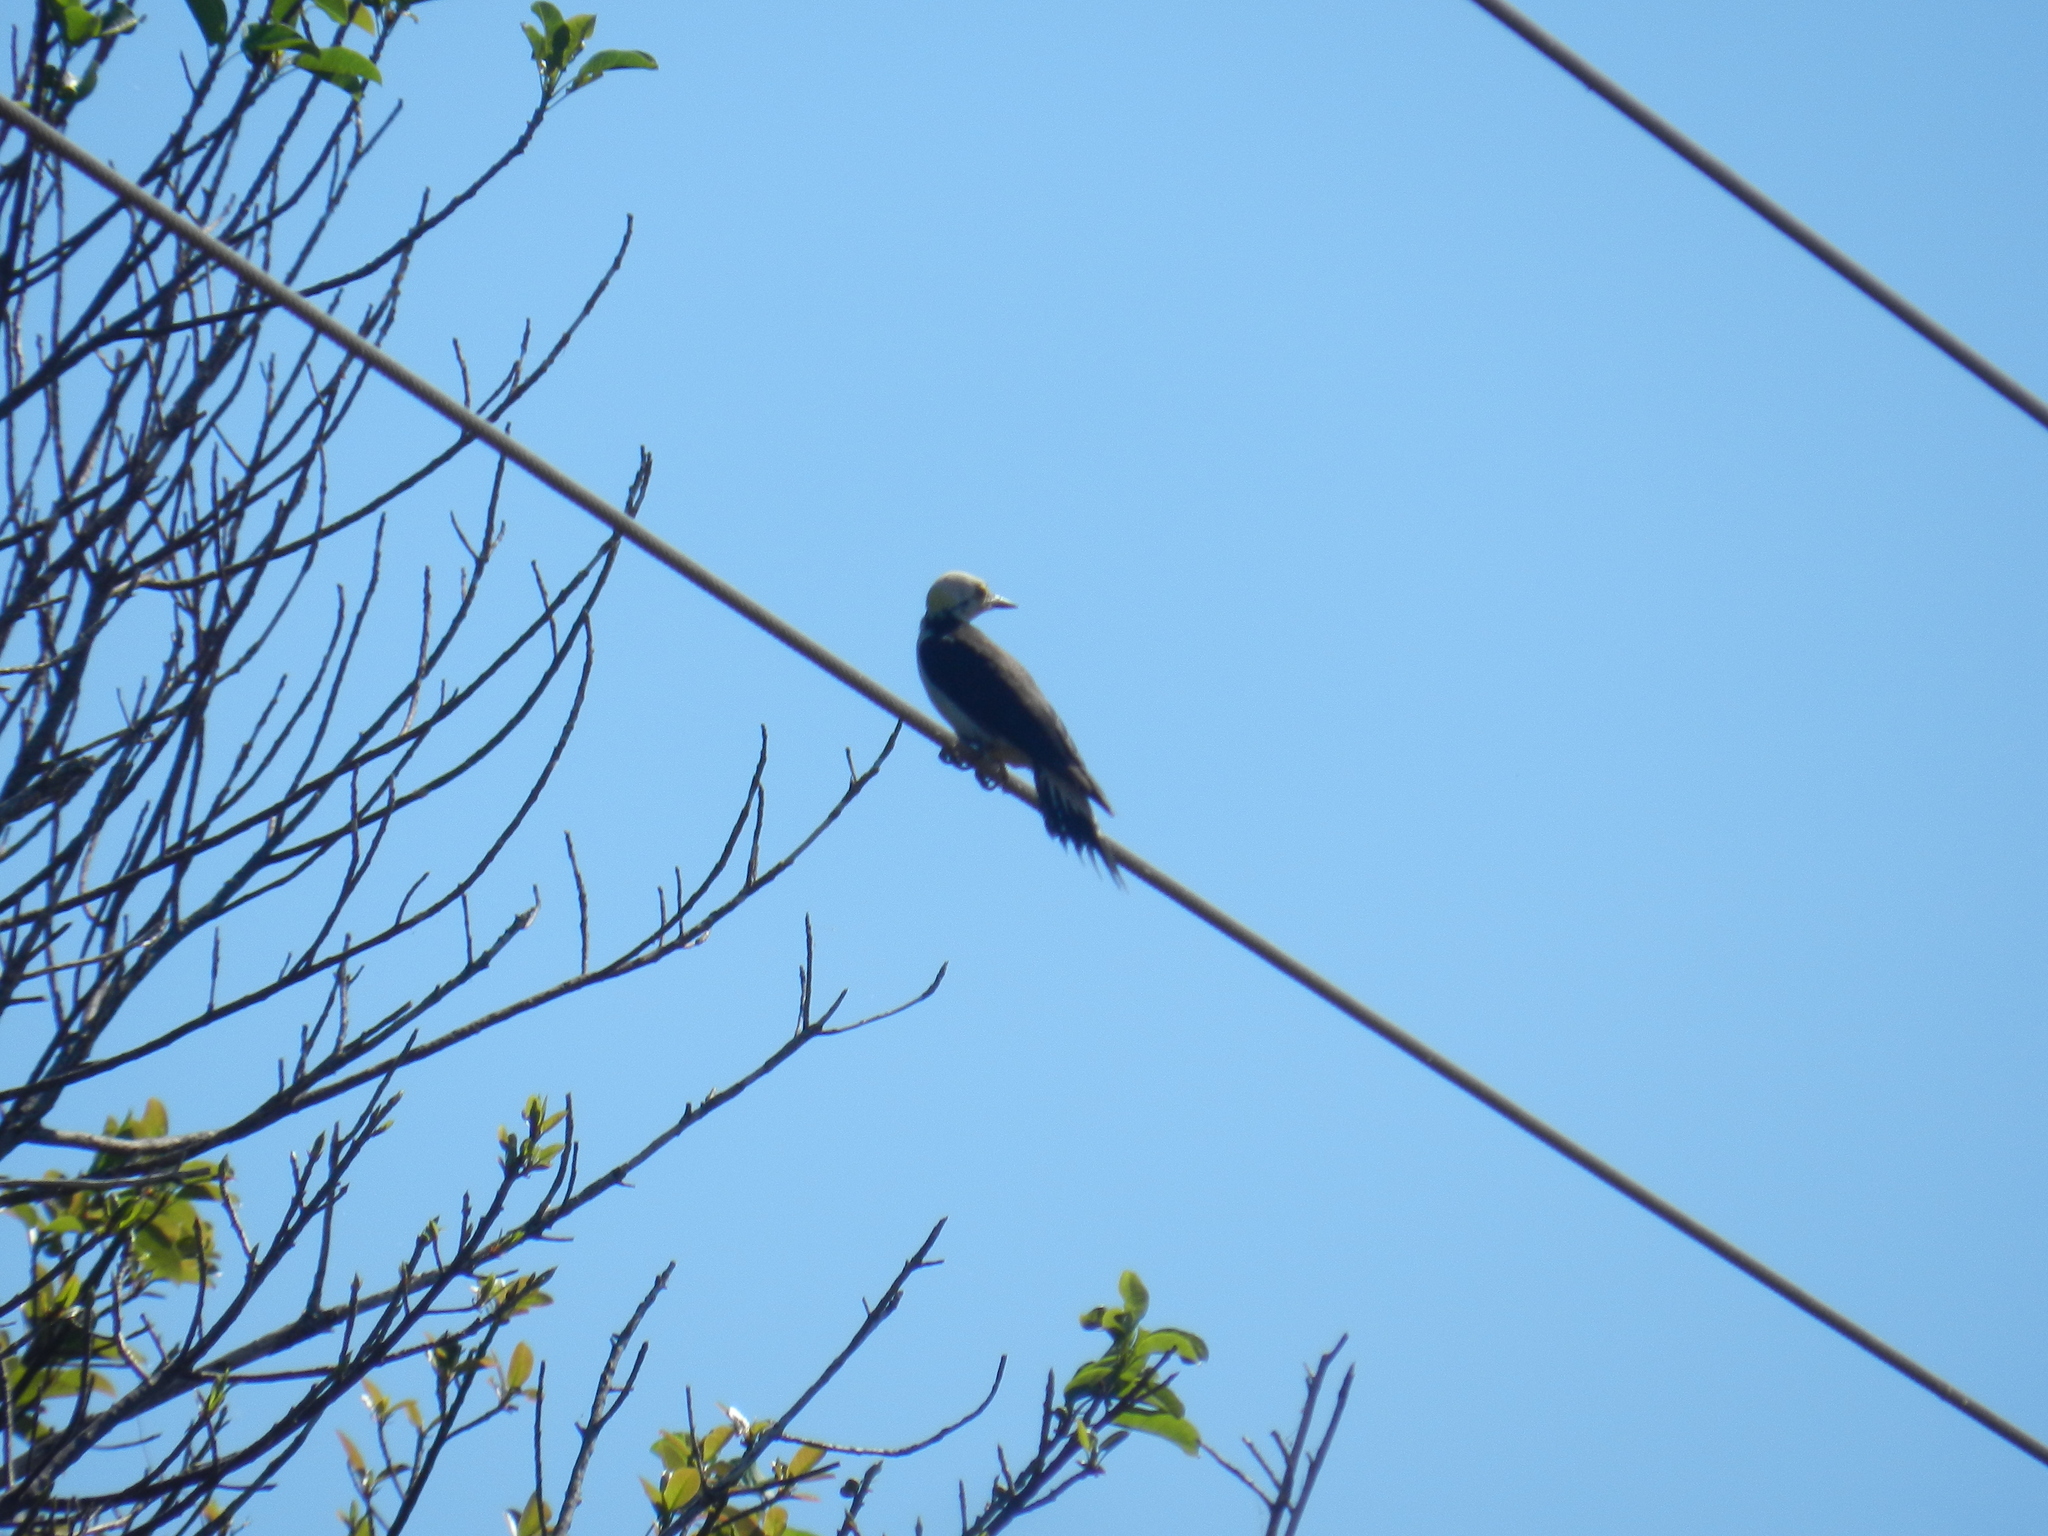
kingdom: Animalia
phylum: Chordata
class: Aves
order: Piciformes
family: Picidae
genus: Melanerpes
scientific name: Melanerpes candidus
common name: White woodpecker
